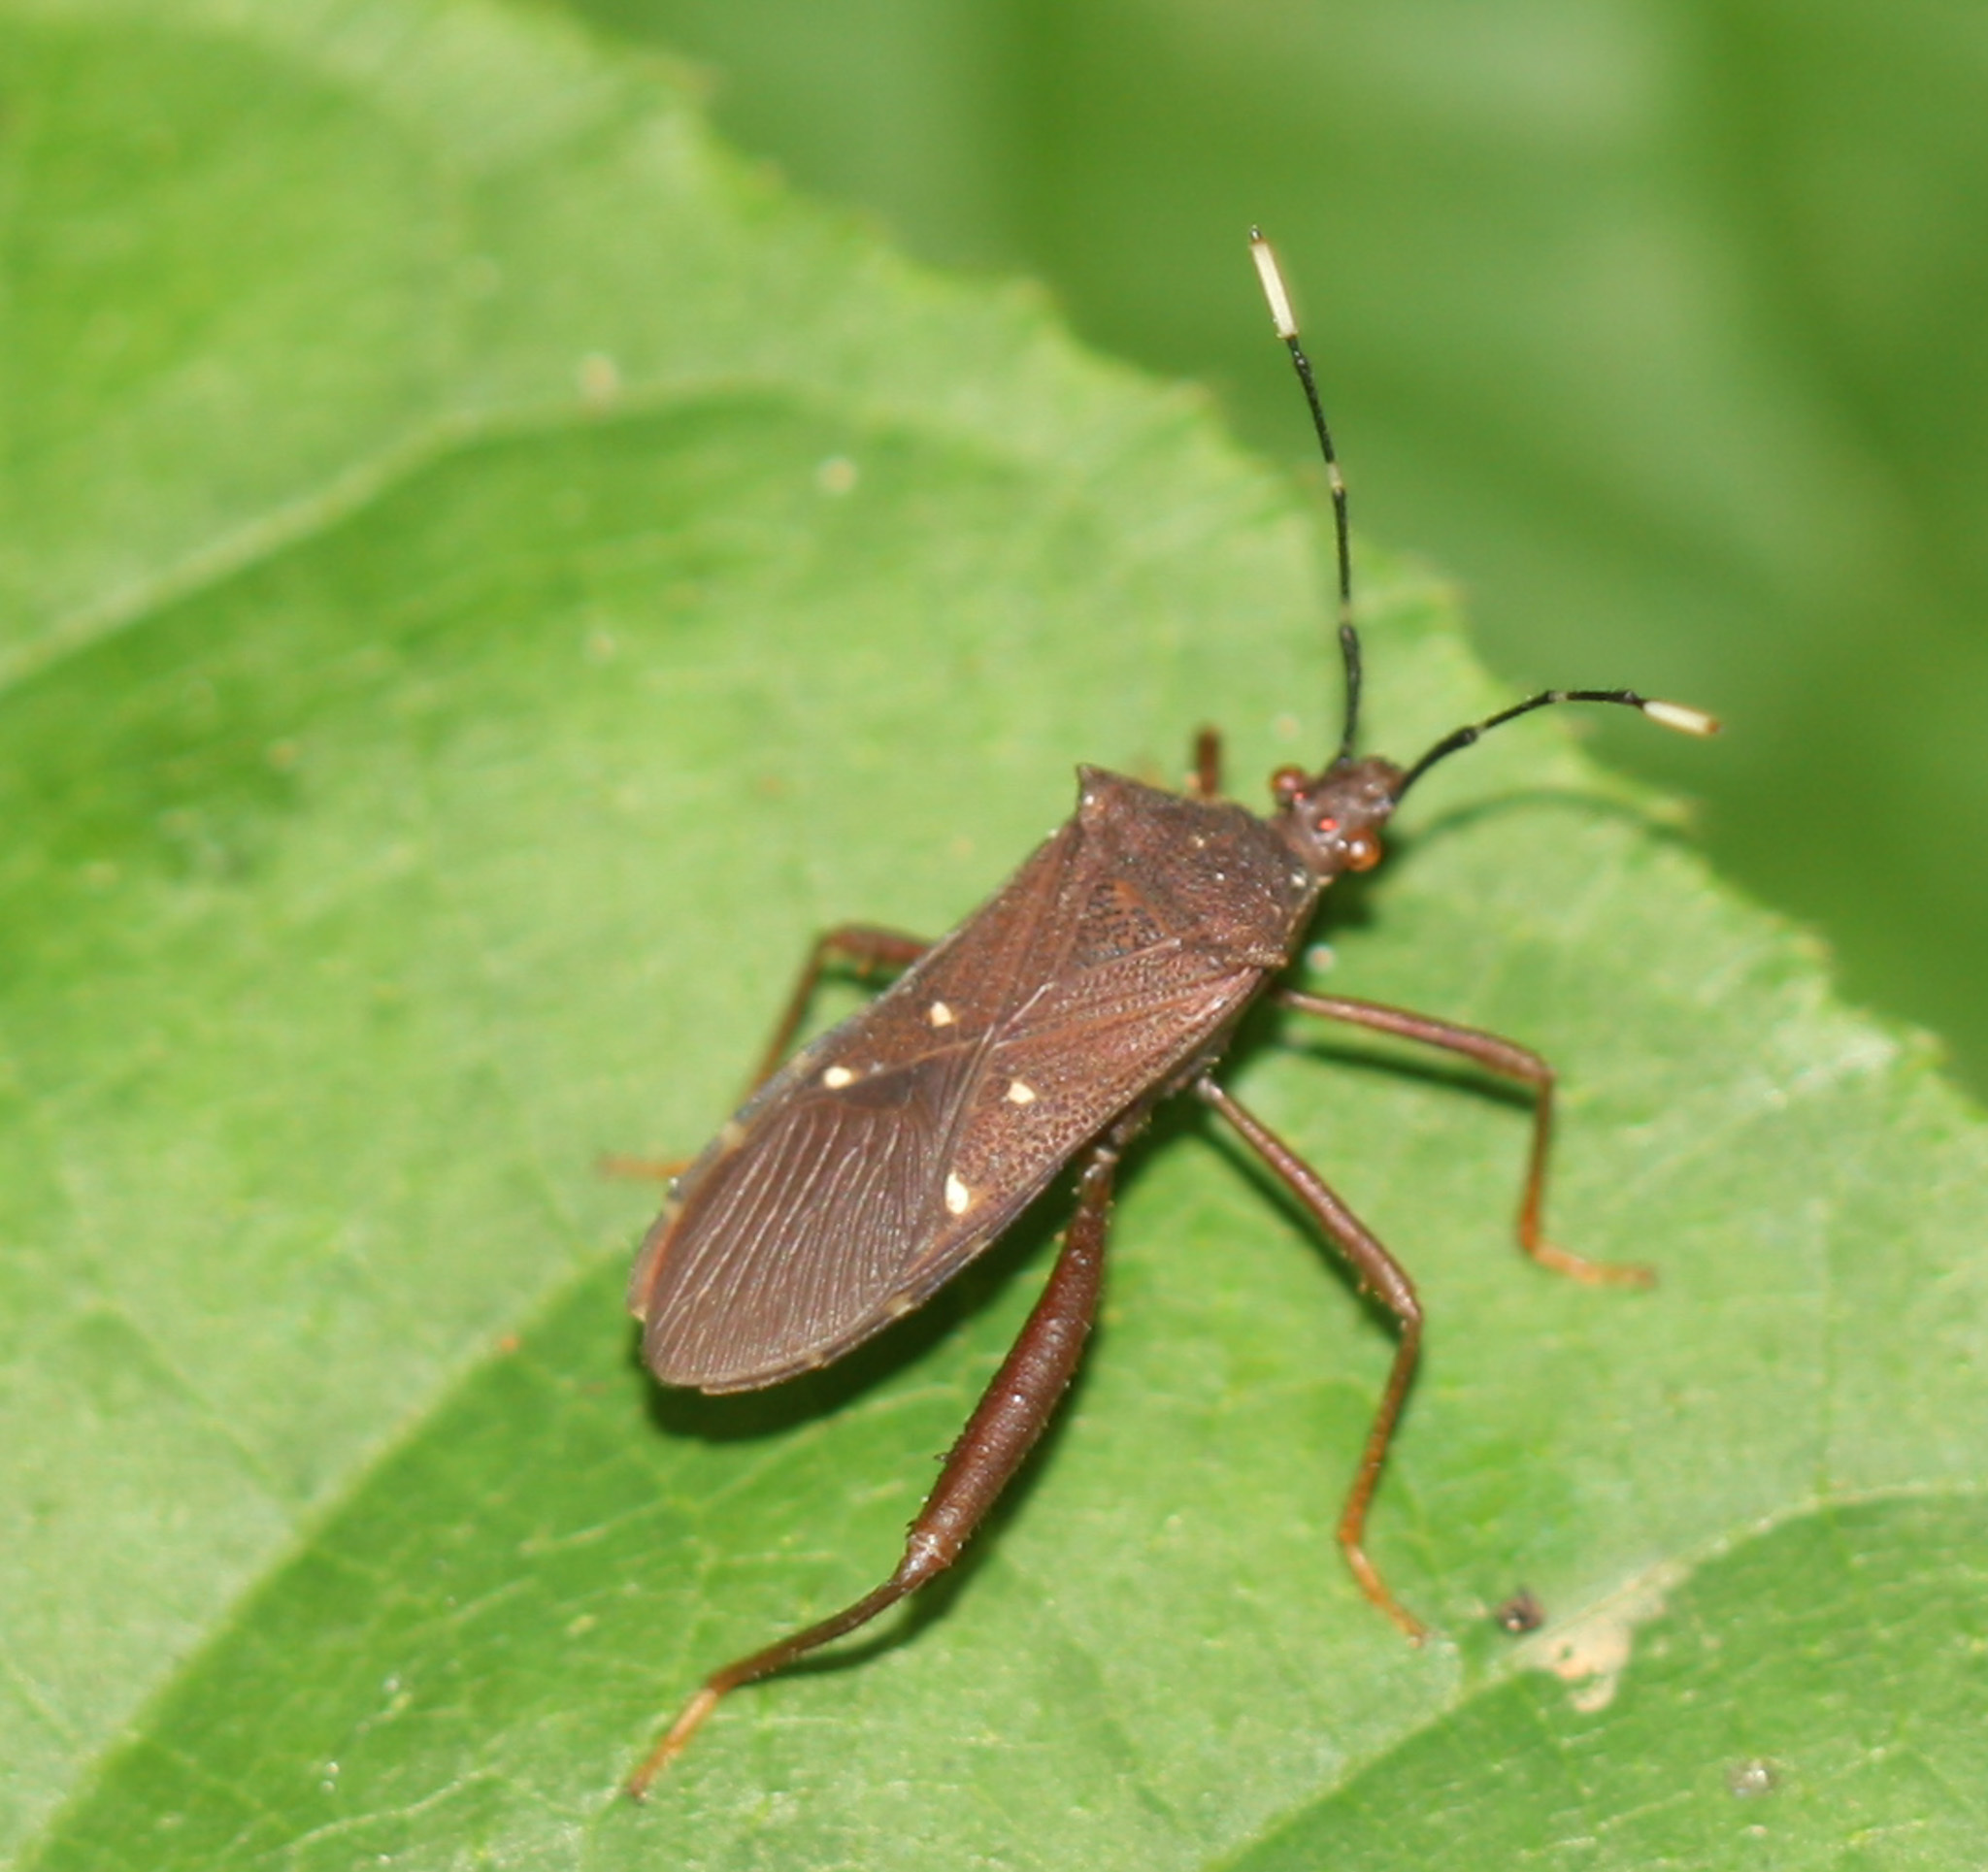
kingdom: Animalia
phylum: Arthropoda
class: Insecta
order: Hemiptera
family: Coreidae
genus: Leptoscelis
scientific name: Leptoscelis quadrisignatus
